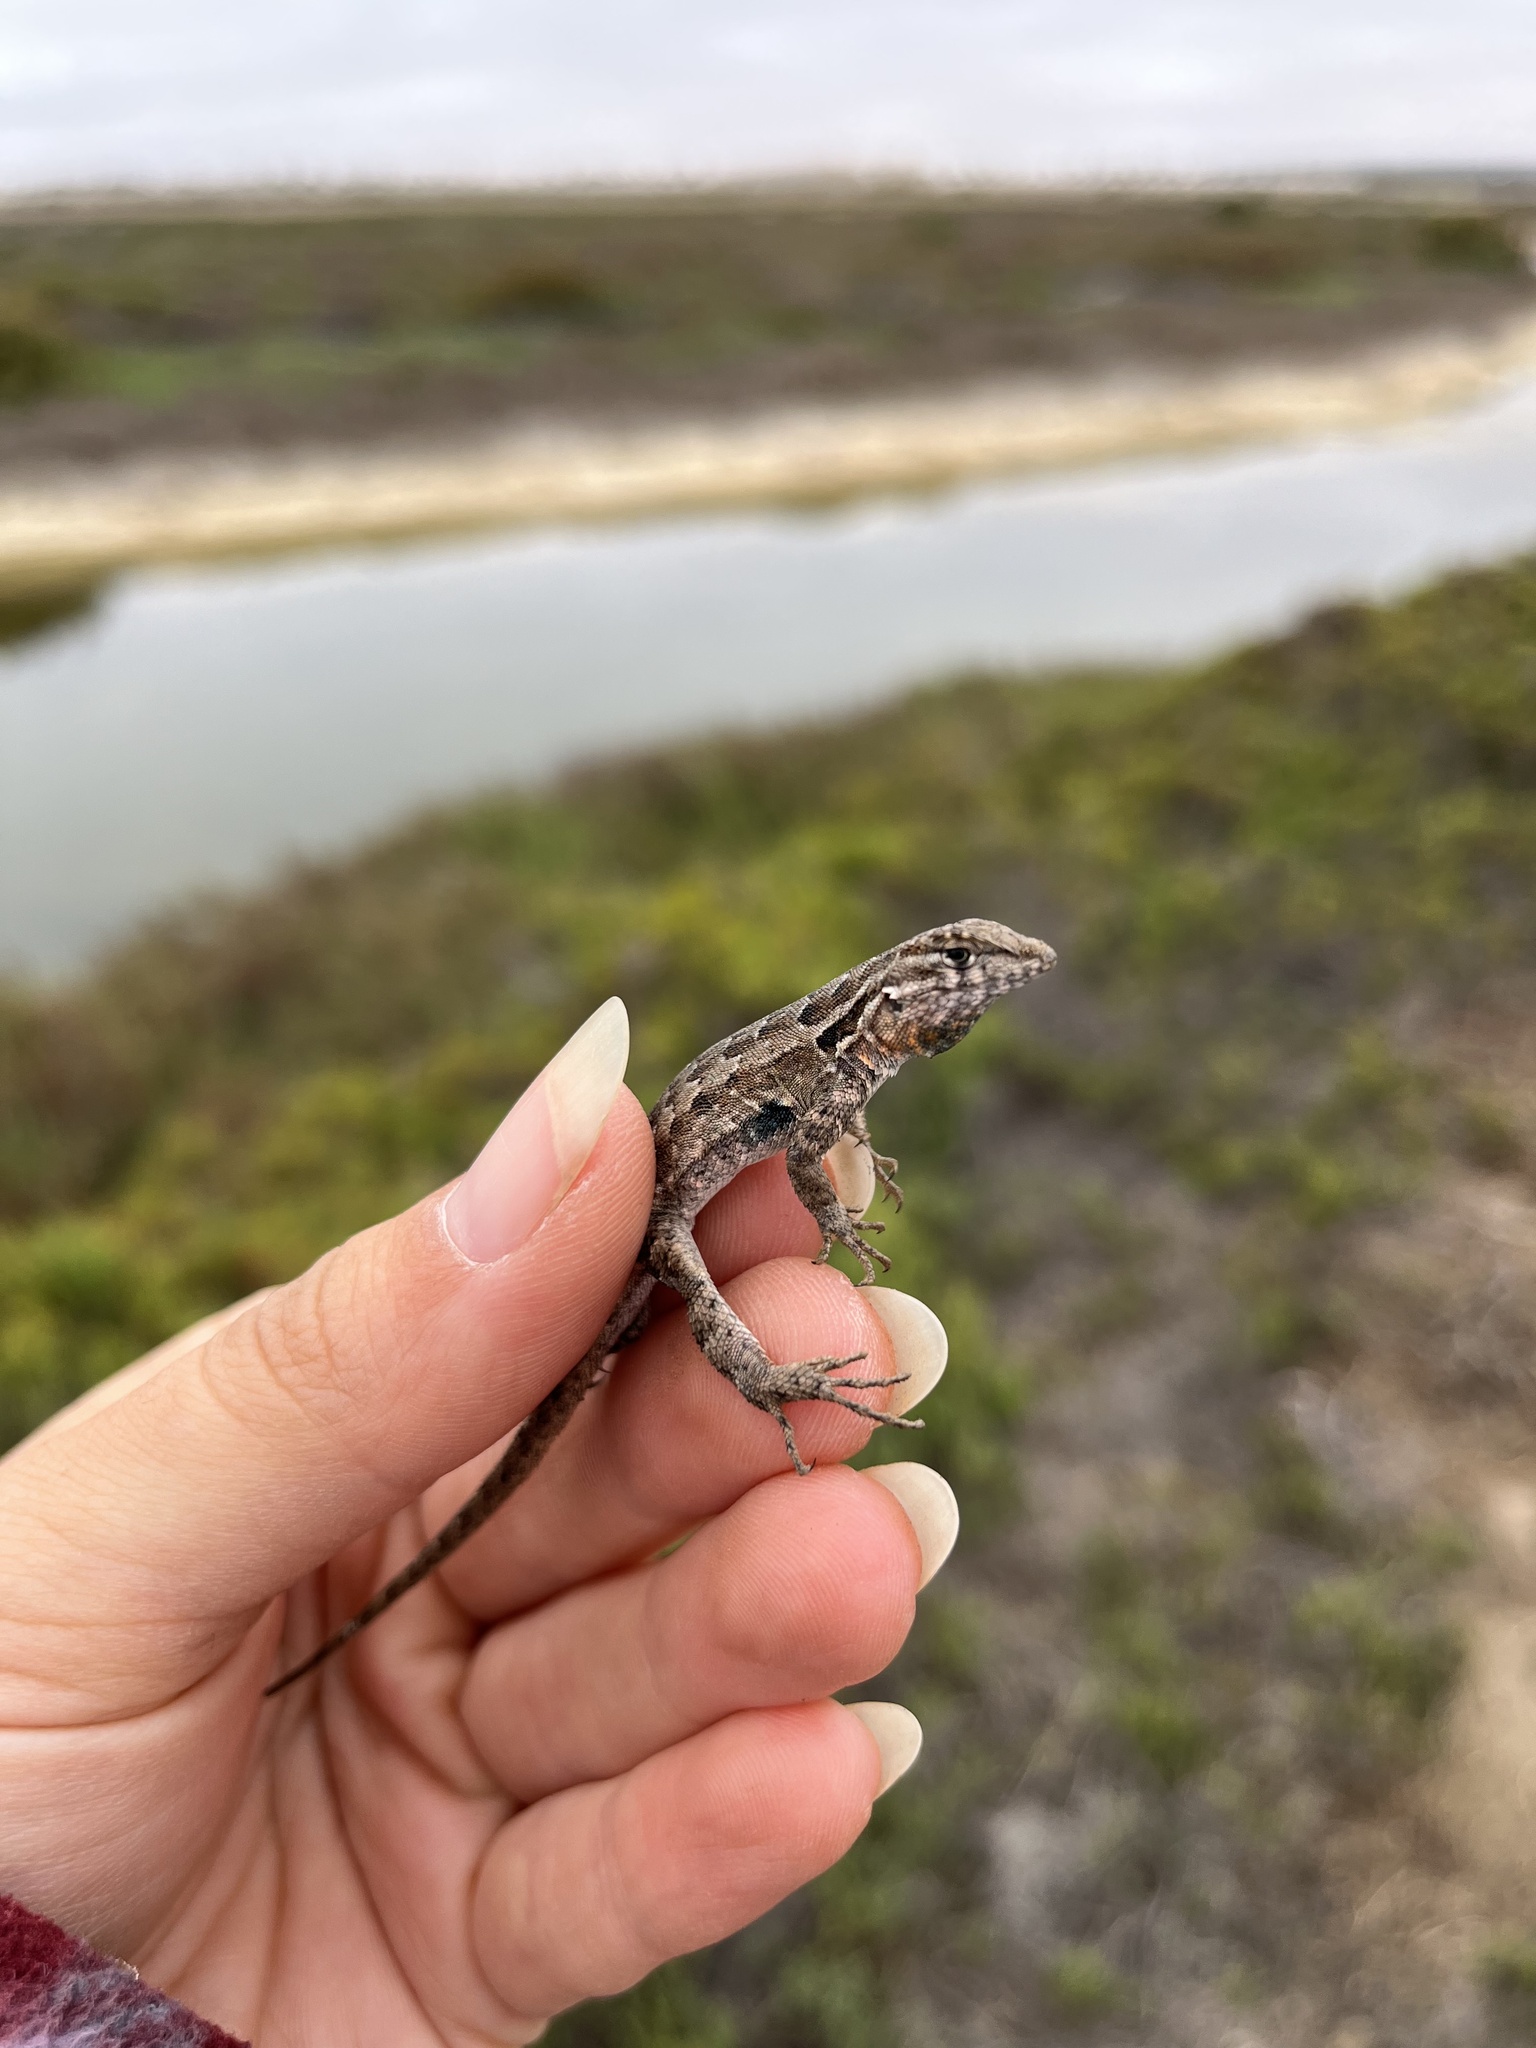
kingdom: Animalia
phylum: Chordata
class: Squamata
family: Phrynosomatidae
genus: Uta
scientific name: Uta stansburiana
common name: Side-blotched lizard
